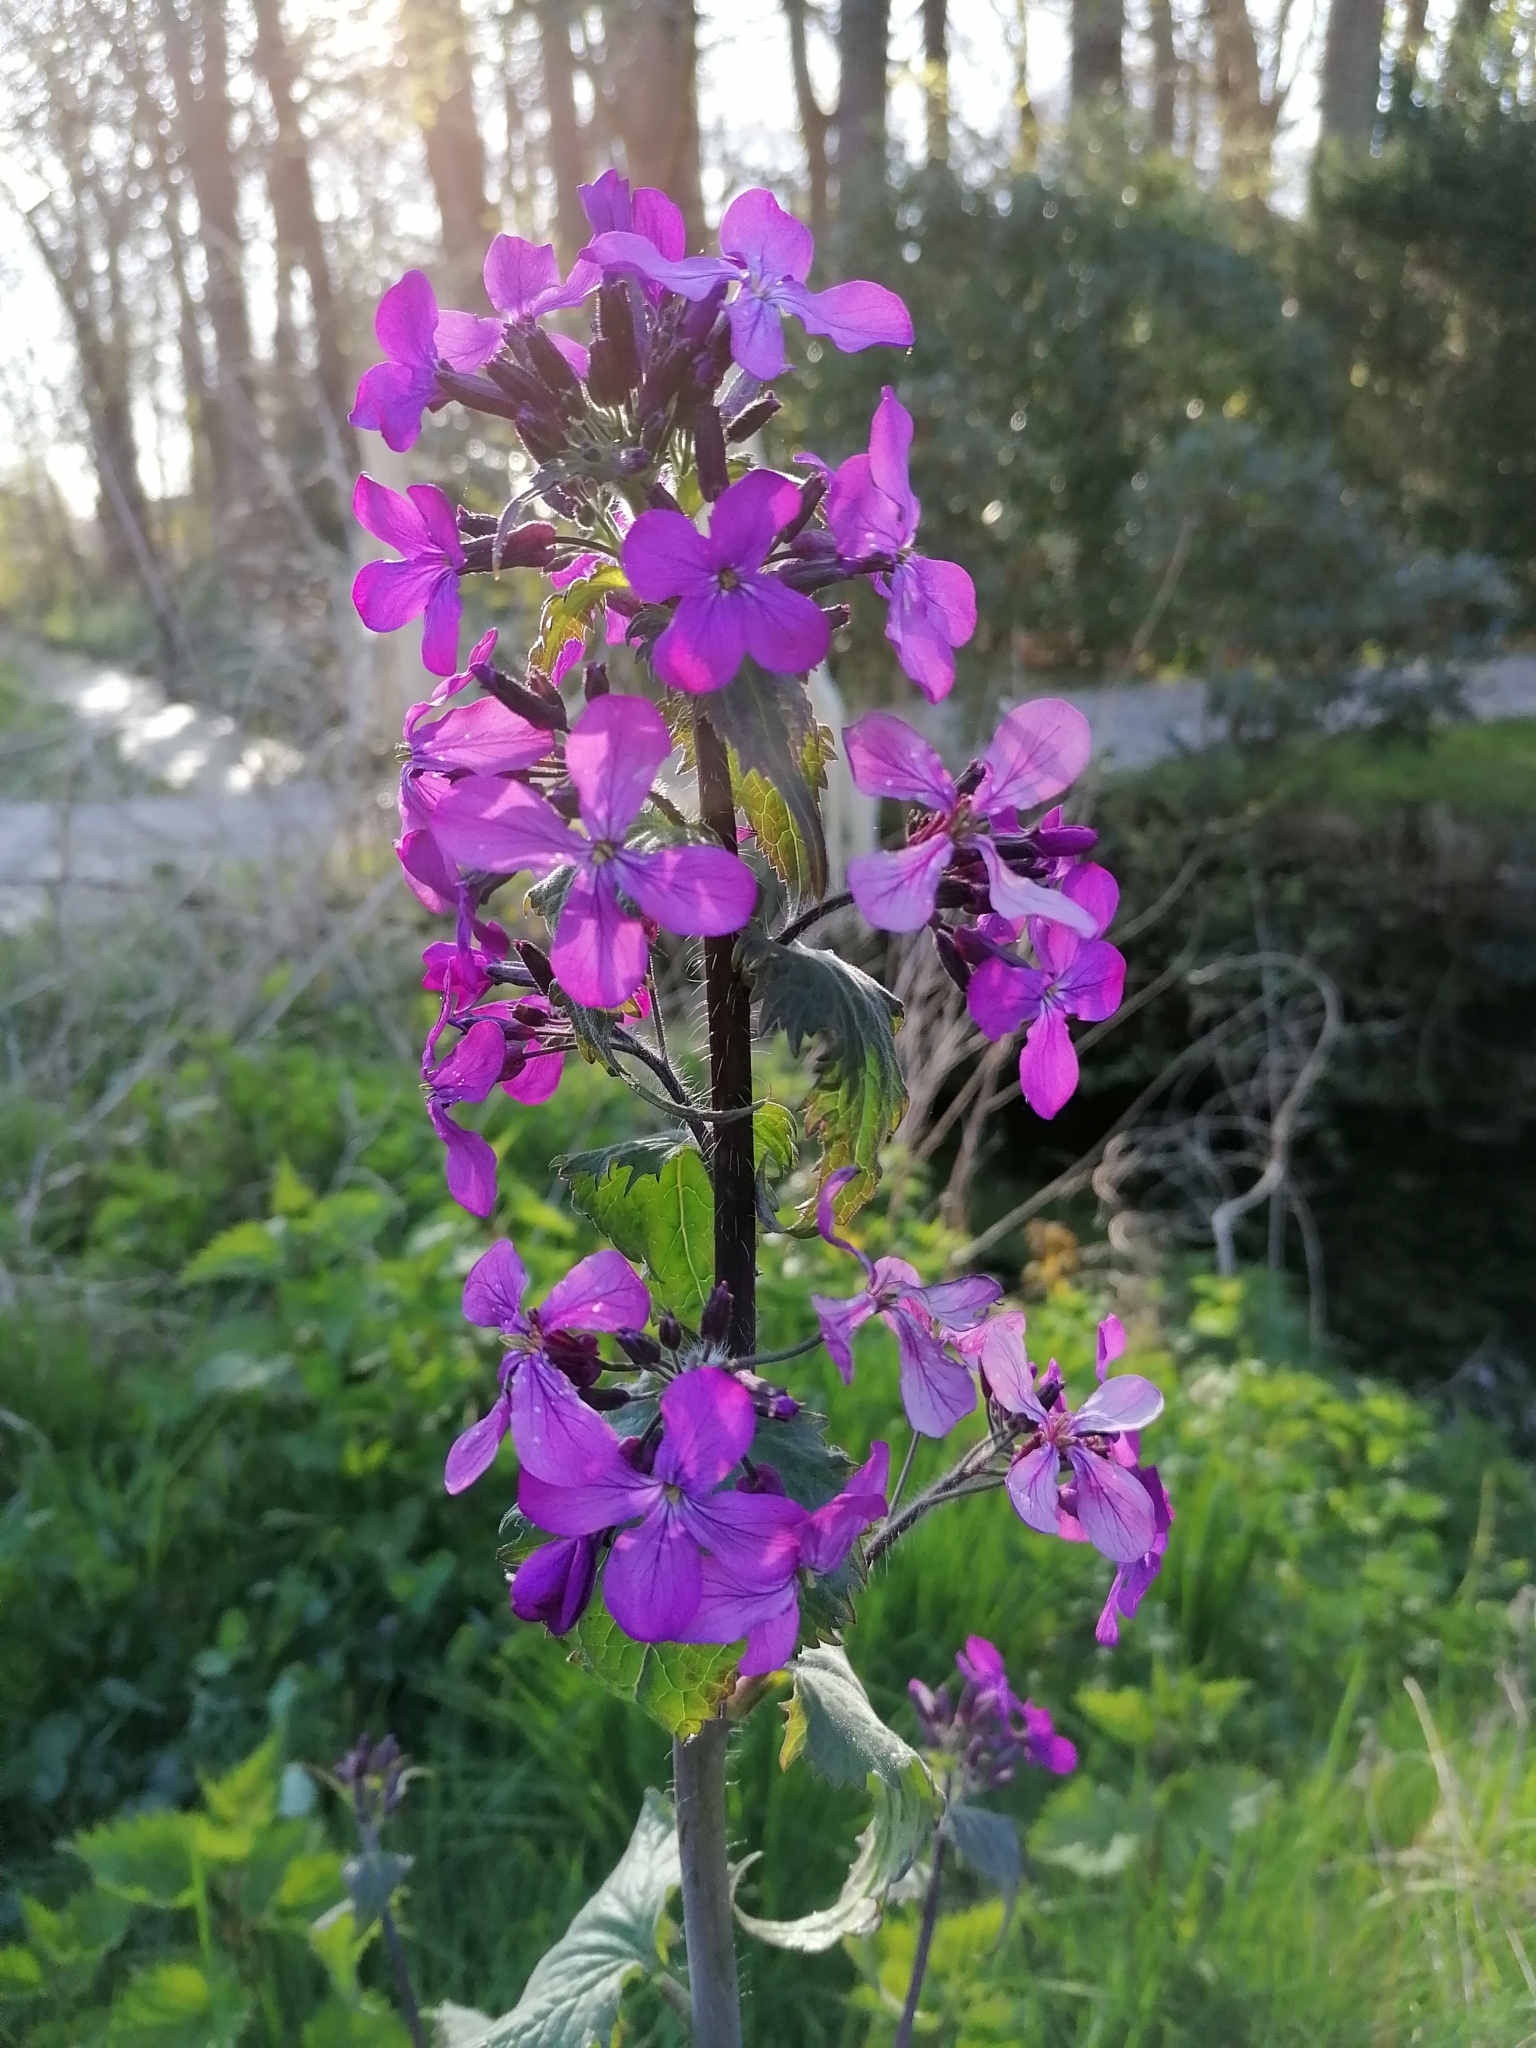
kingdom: Plantae
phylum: Tracheophyta
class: Magnoliopsida
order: Brassicales
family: Brassicaceae
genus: Lunaria
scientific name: Lunaria annua
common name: Honesty
